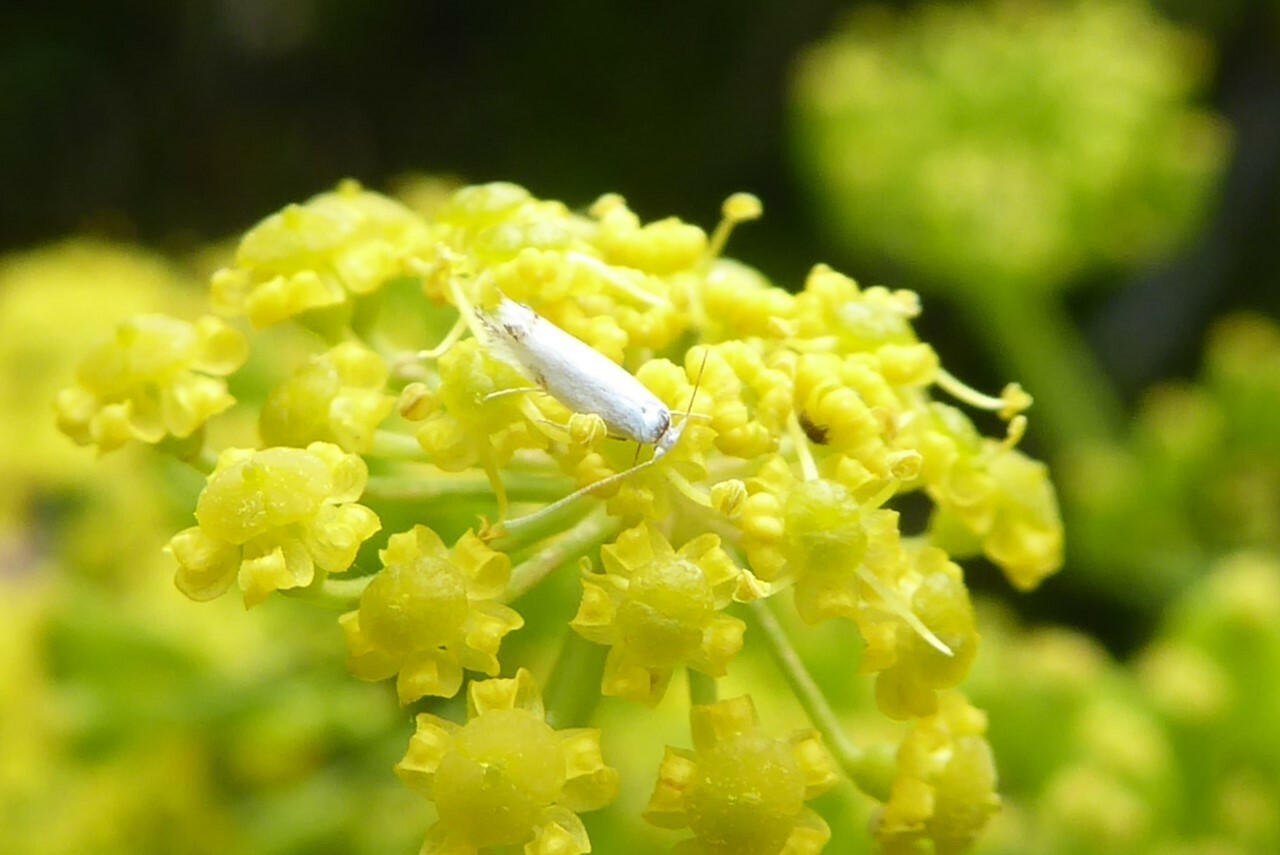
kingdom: Animalia
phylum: Arthropoda
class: Insecta
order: Lepidoptera
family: Lyonetiidae
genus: Leucoptera
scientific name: Leucoptera spartifoliella
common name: Scotch broom twig miner
